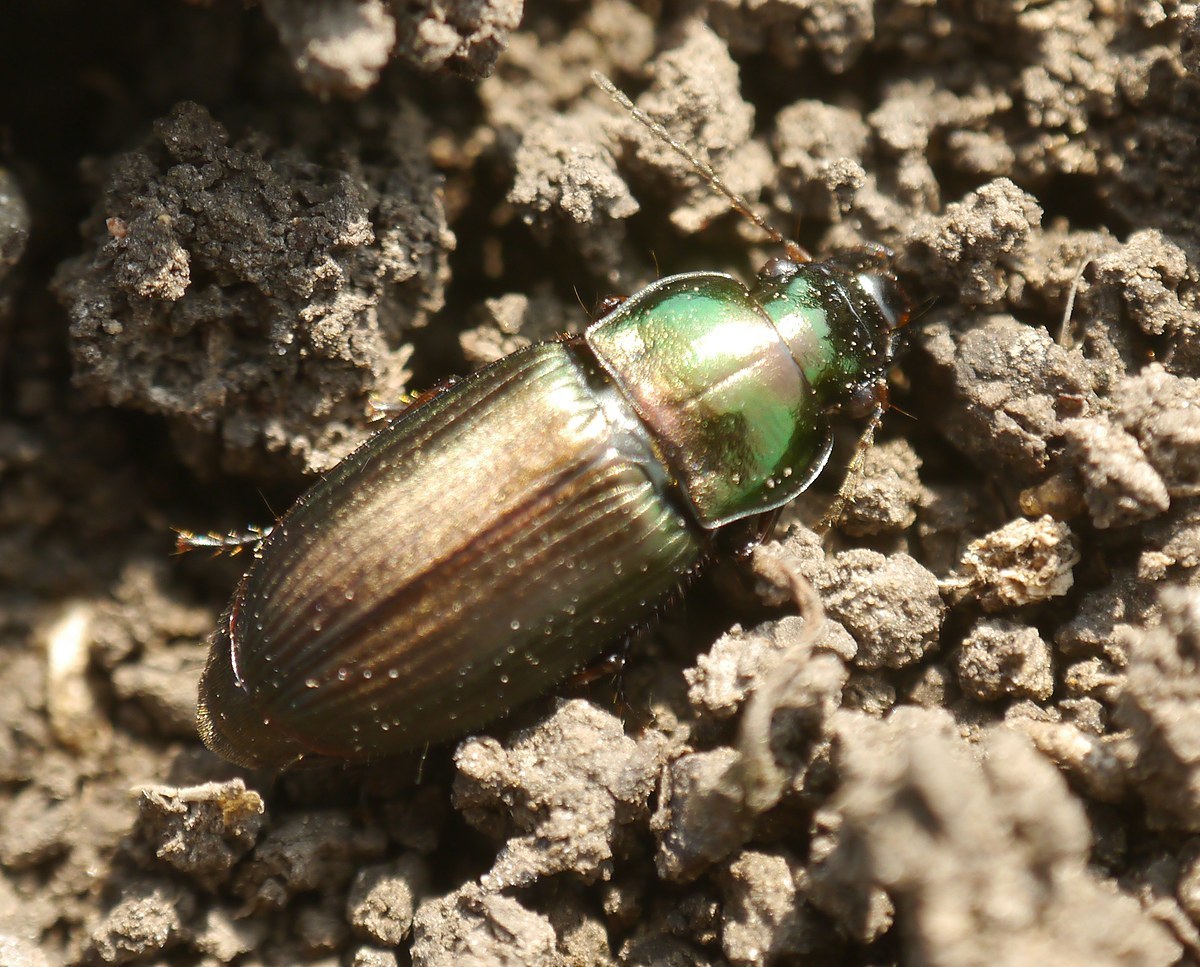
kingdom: Animalia
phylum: Arthropoda
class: Insecta
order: Coleoptera
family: Carabidae
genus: Harpalus
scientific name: Harpalus affinis
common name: Polychrome harp ground beetle
